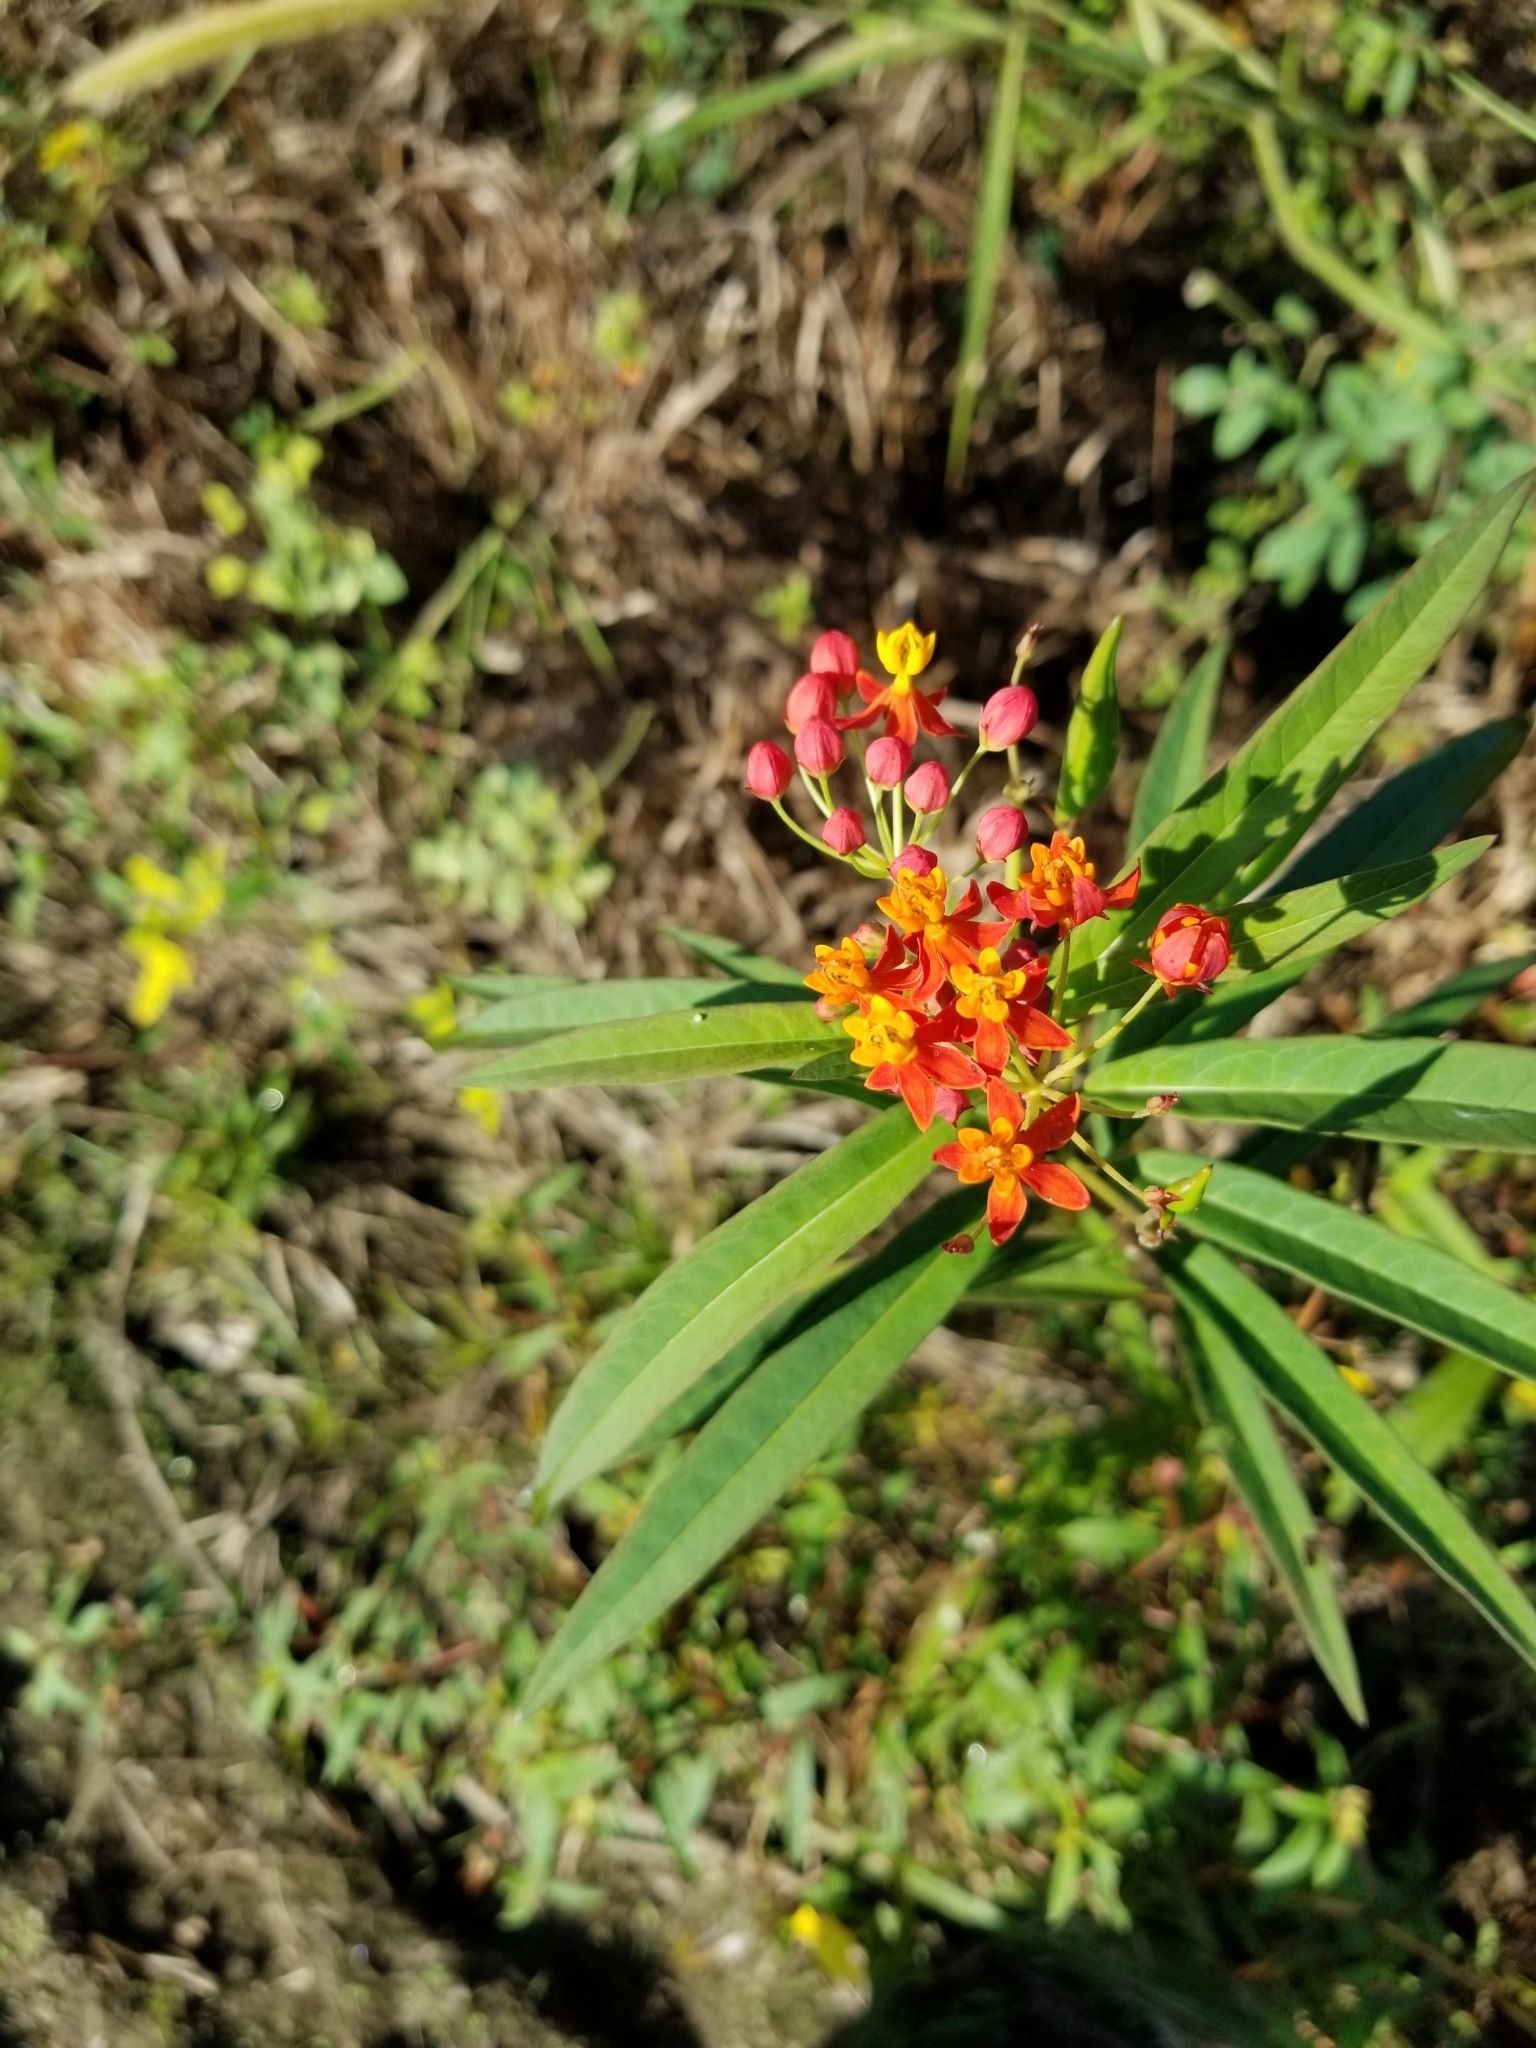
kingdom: Plantae
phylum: Tracheophyta
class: Magnoliopsida
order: Gentianales
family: Apocynaceae
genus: Asclepias
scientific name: Asclepias curassavica
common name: Bloodflower
